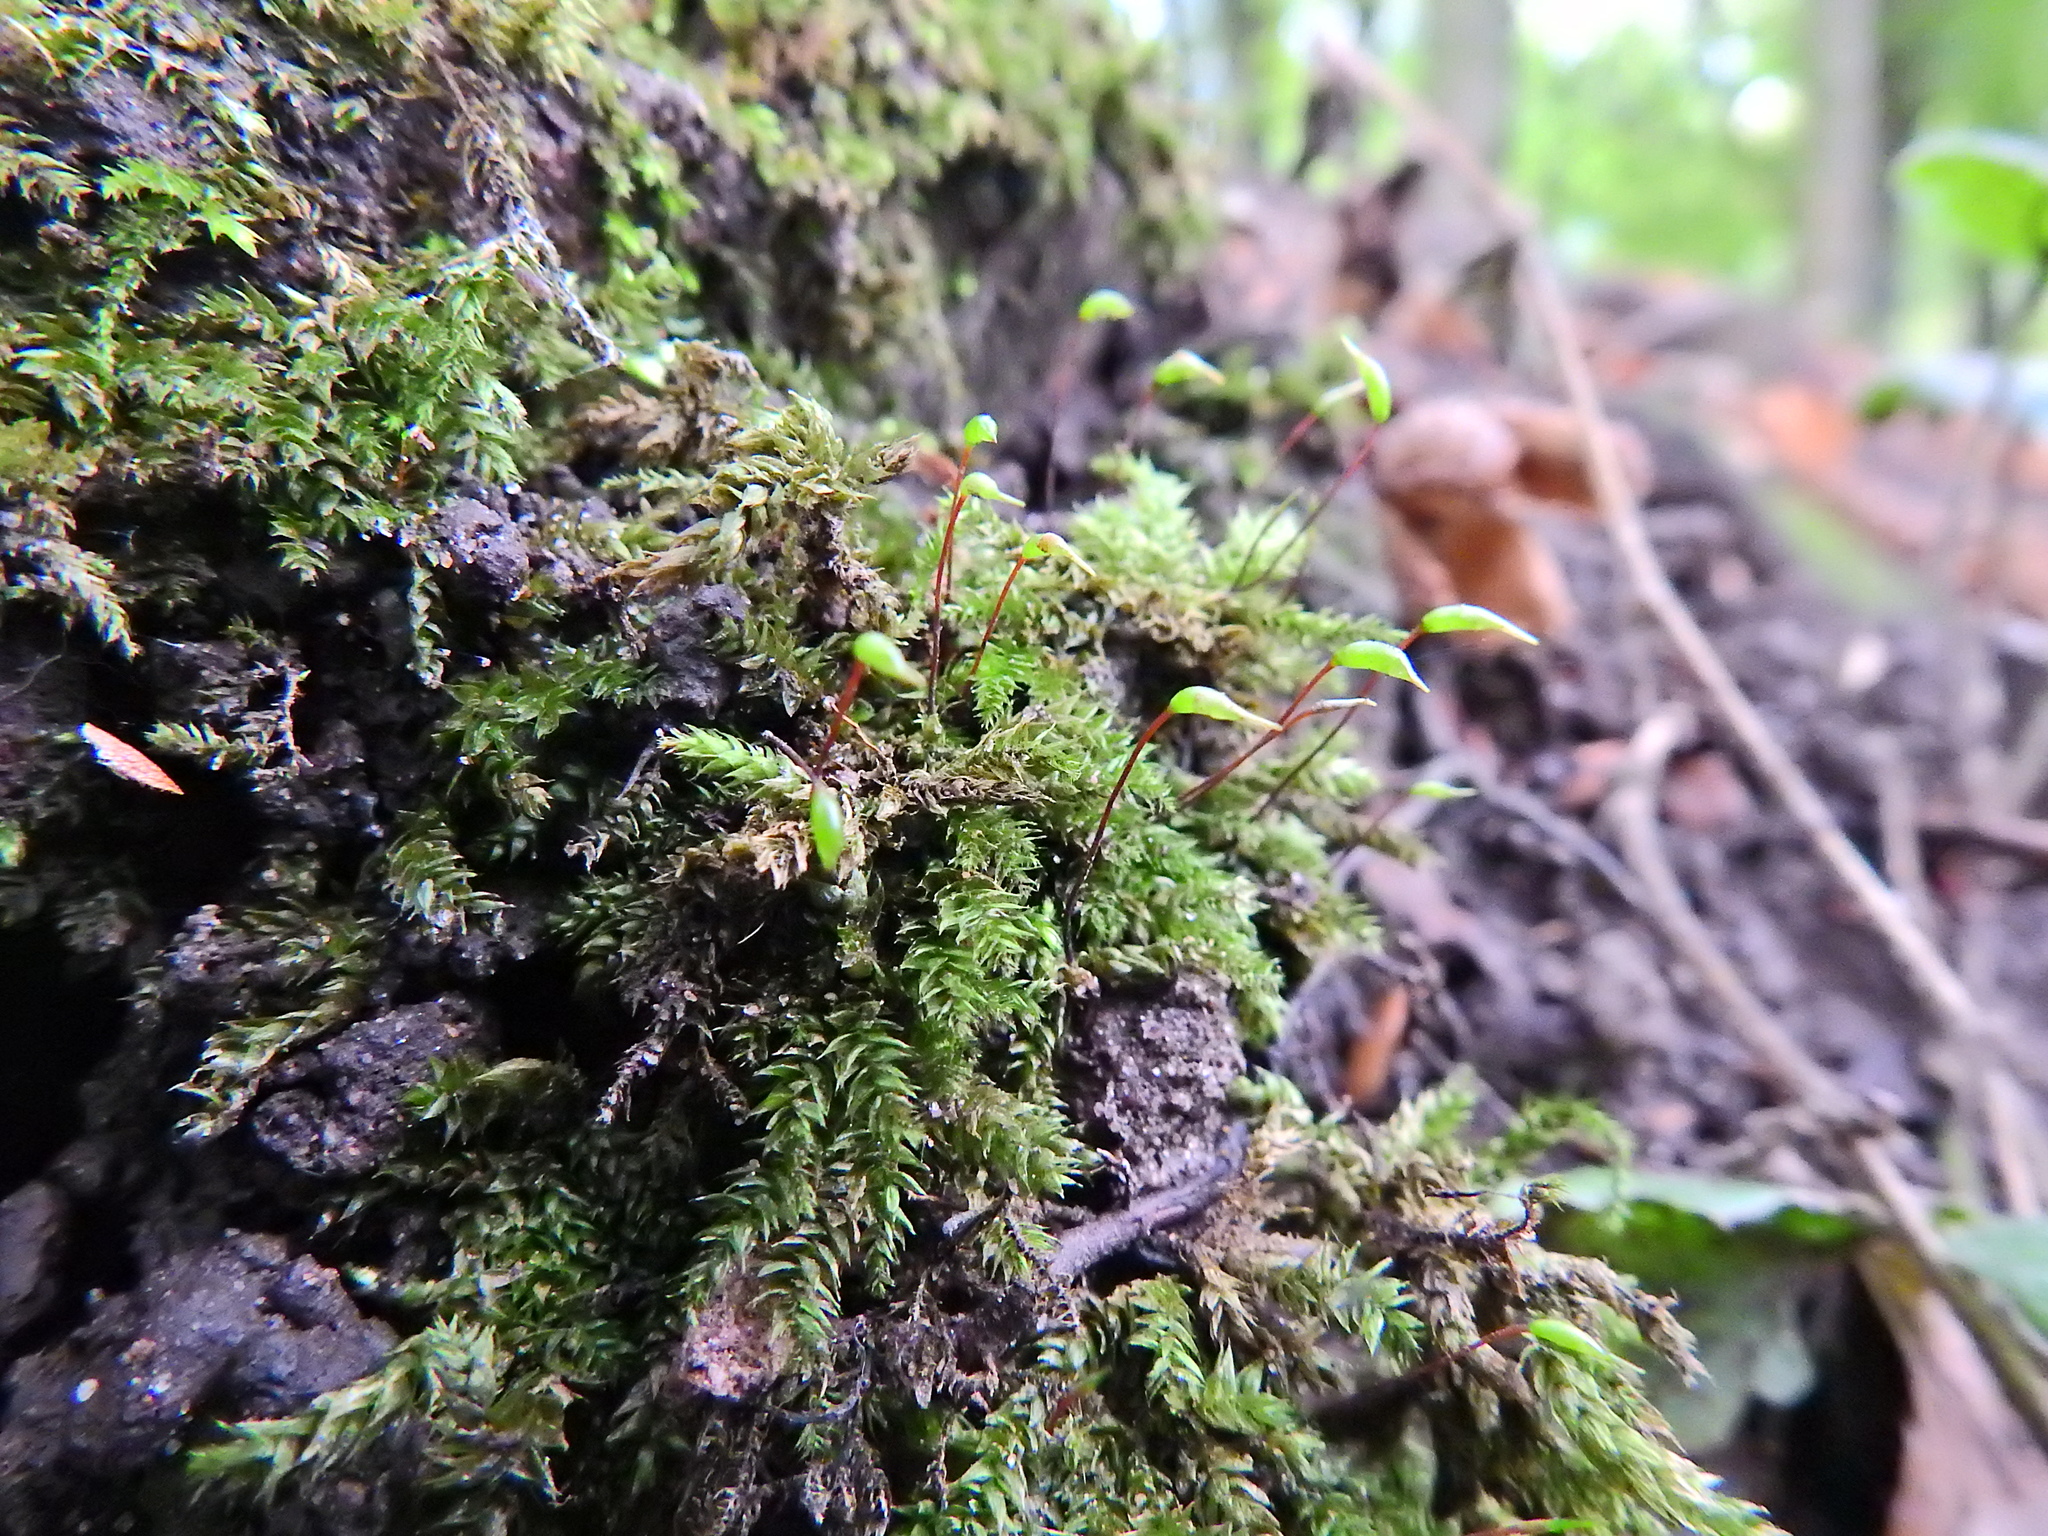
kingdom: Plantae
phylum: Bryophyta
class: Bryopsida
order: Hypnales
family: Brachytheciaceae
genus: Rhynchostegium
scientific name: Rhynchostegium confertum
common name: Clustered feather-moss
